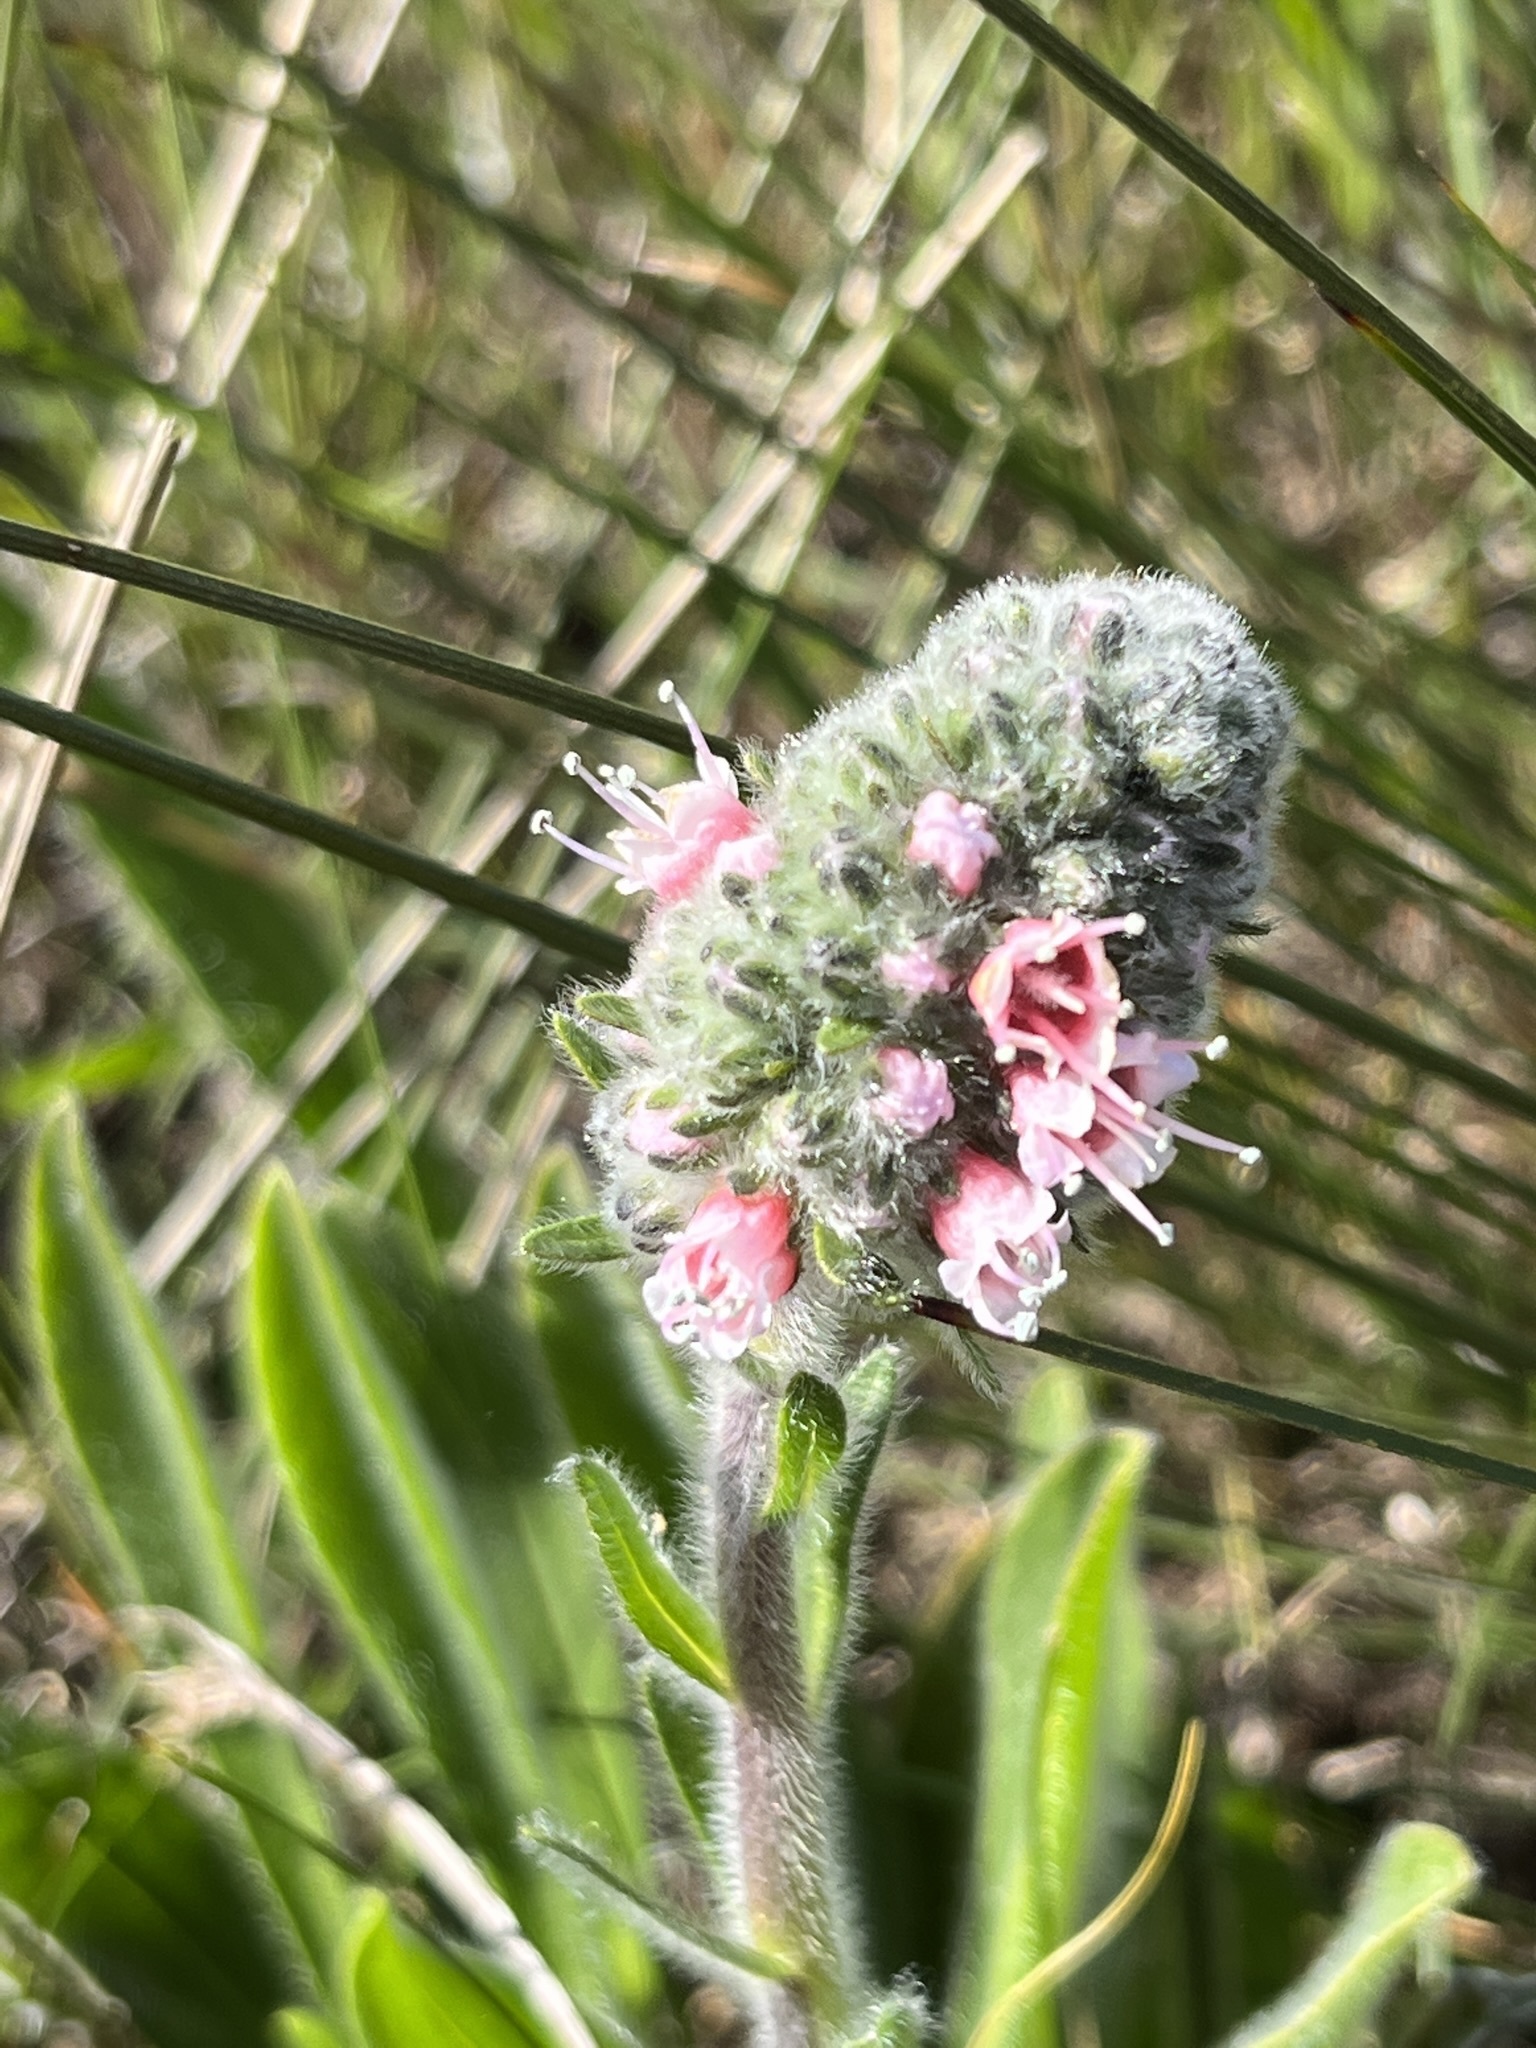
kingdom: Plantae
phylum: Tracheophyta
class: Magnoliopsida
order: Boraginales
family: Boraginaceae
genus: Lobostemon
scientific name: Lobostemon ecklonianus
